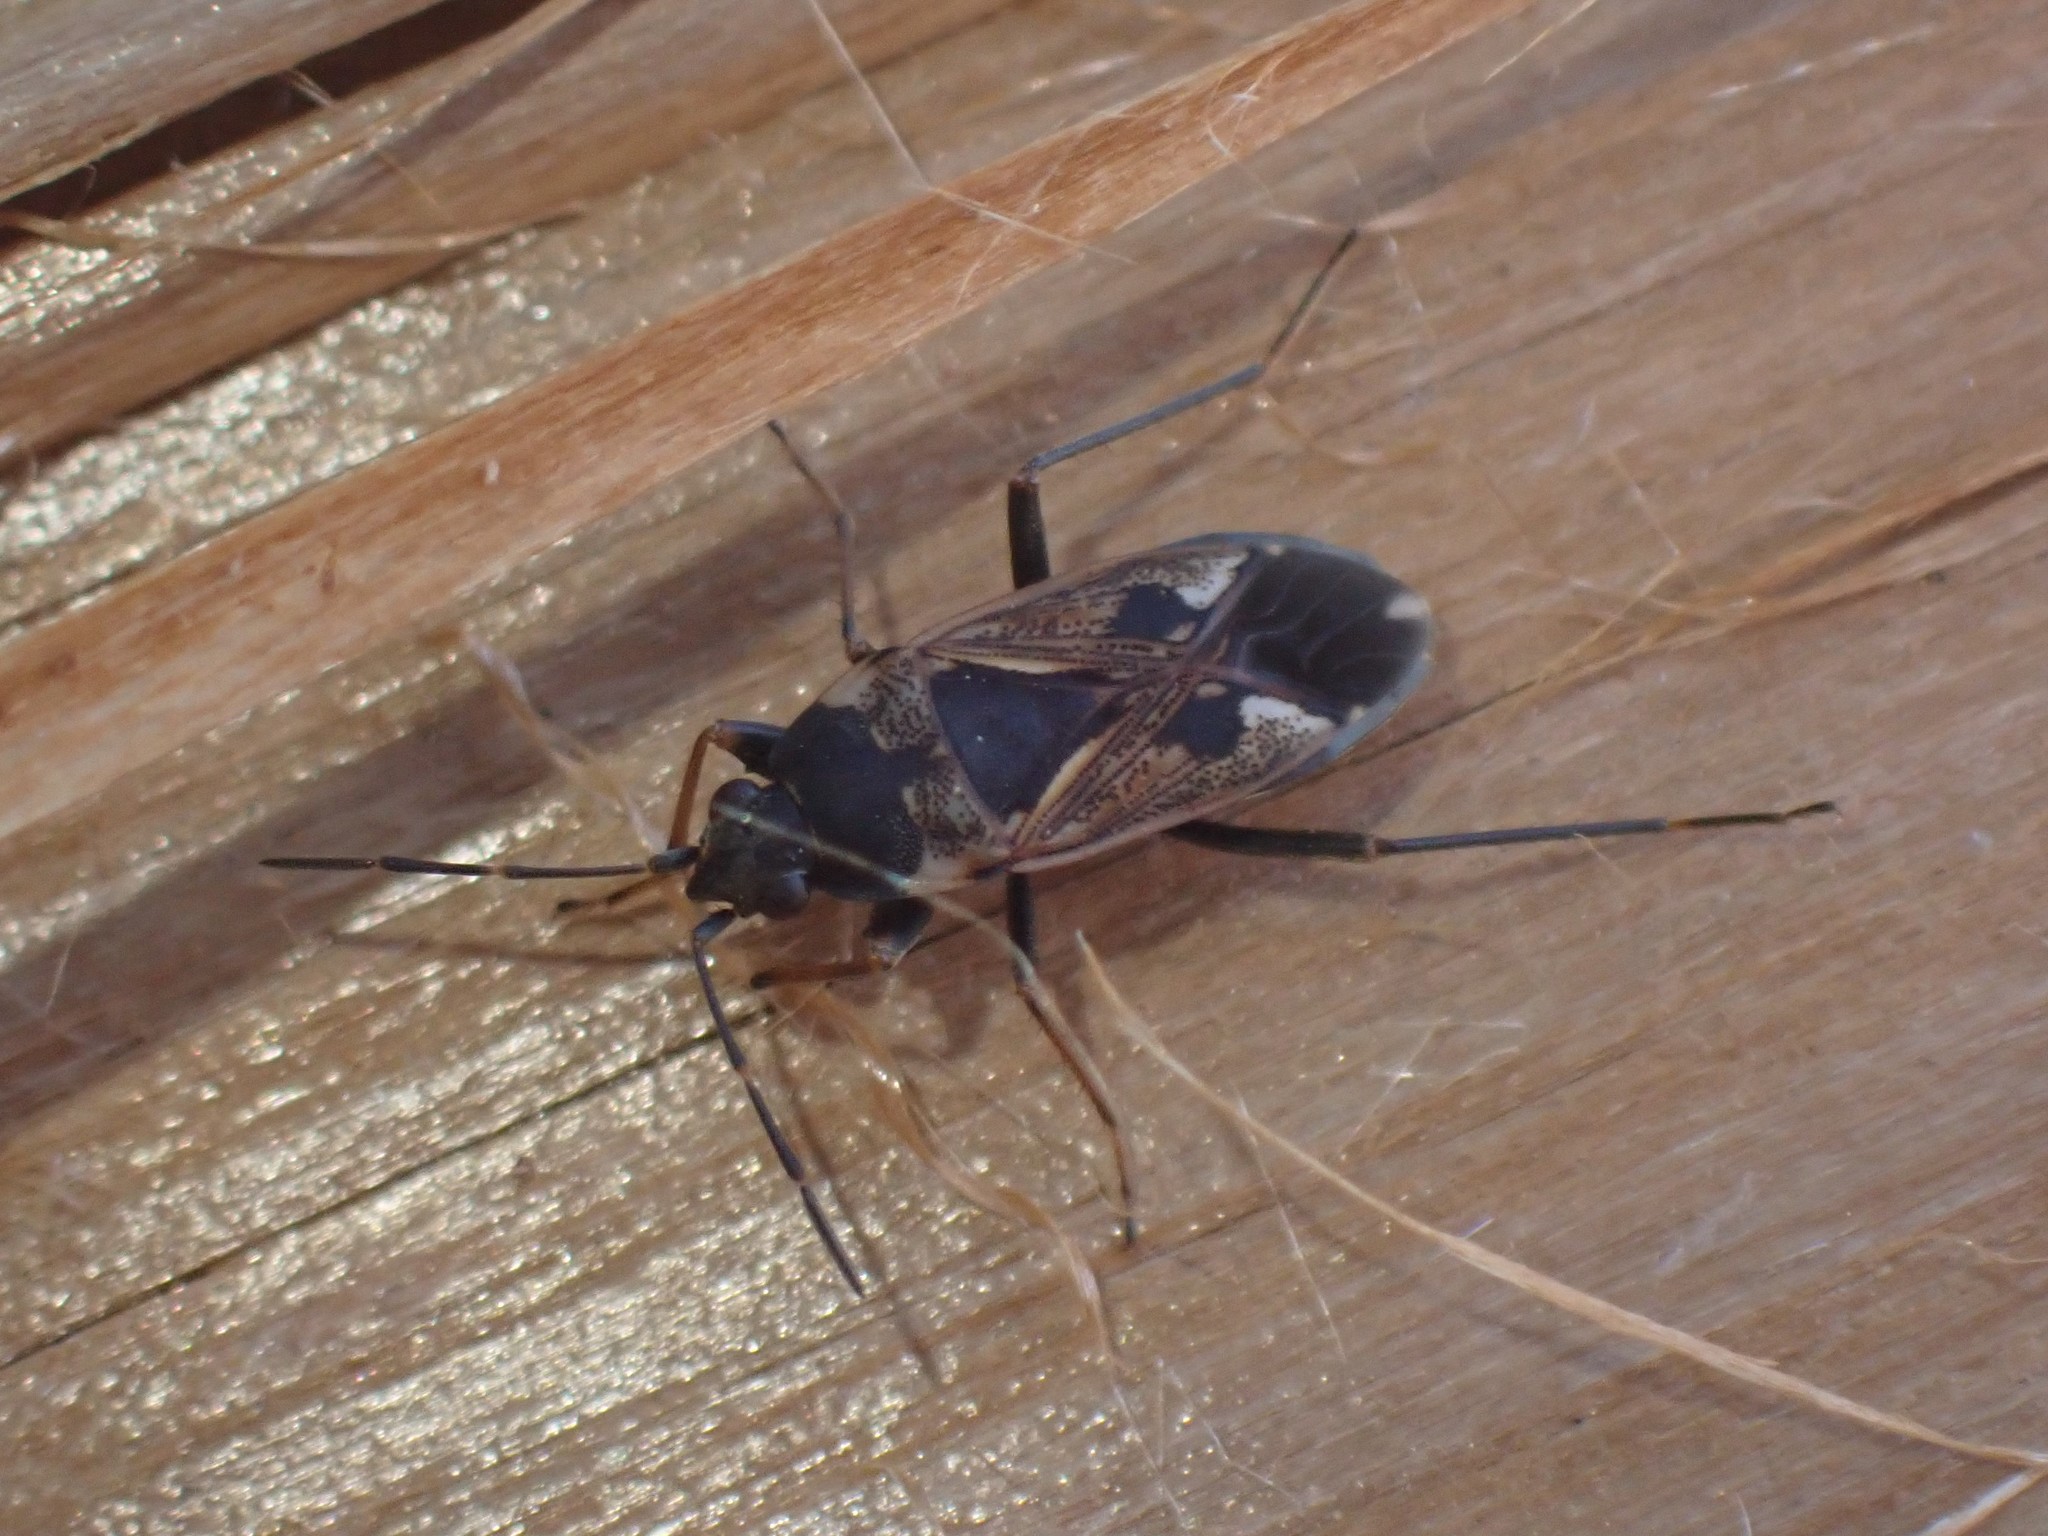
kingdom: Animalia
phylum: Arthropoda
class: Insecta
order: Hemiptera
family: Rhyparochromidae
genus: Rhyparochromus
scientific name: Rhyparochromus vulgaris
